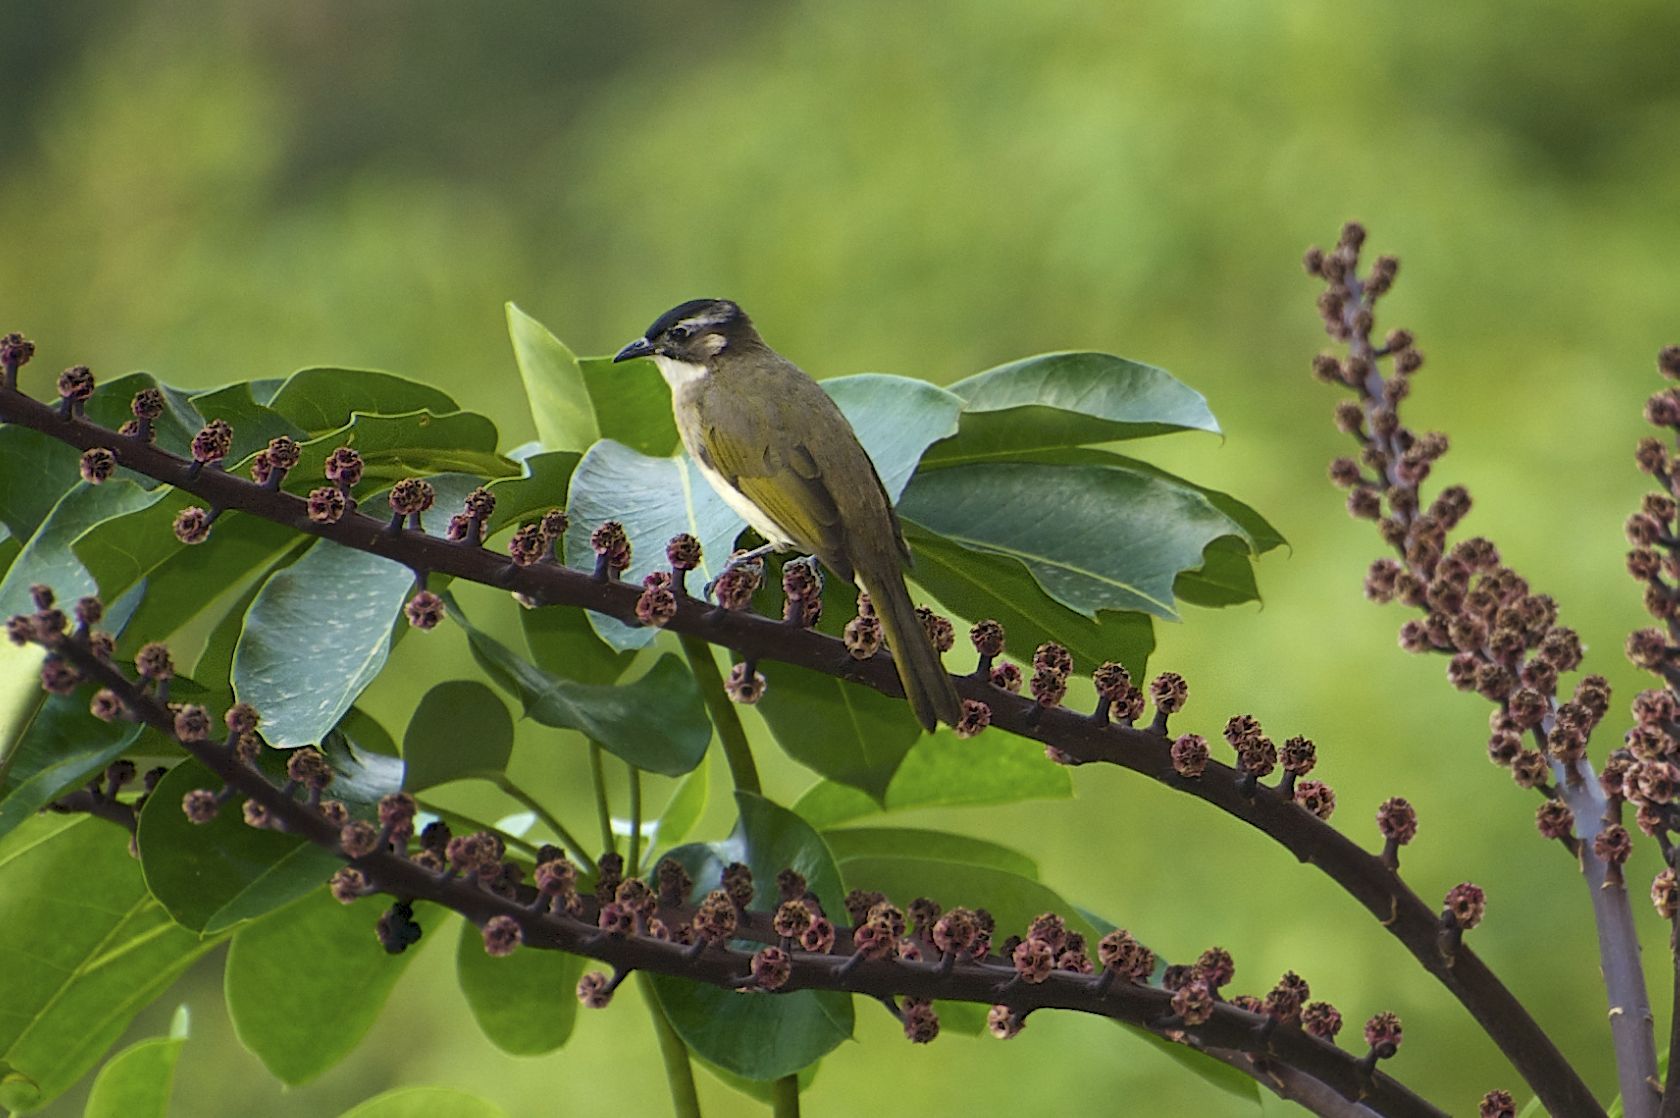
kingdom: Animalia
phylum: Chordata
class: Aves
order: Passeriformes
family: Pycnonotidae
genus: Pycnonotus
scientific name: Pycnonotus sinensis
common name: Light-vented bulbul
